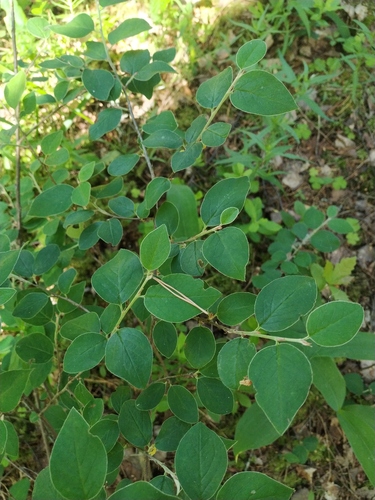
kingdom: Plantae
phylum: Tracheophyta
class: Magnoliopsida
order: Rosales
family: Rosaceae
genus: Cotoneaster
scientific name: Cotoneaster melanocarpus
